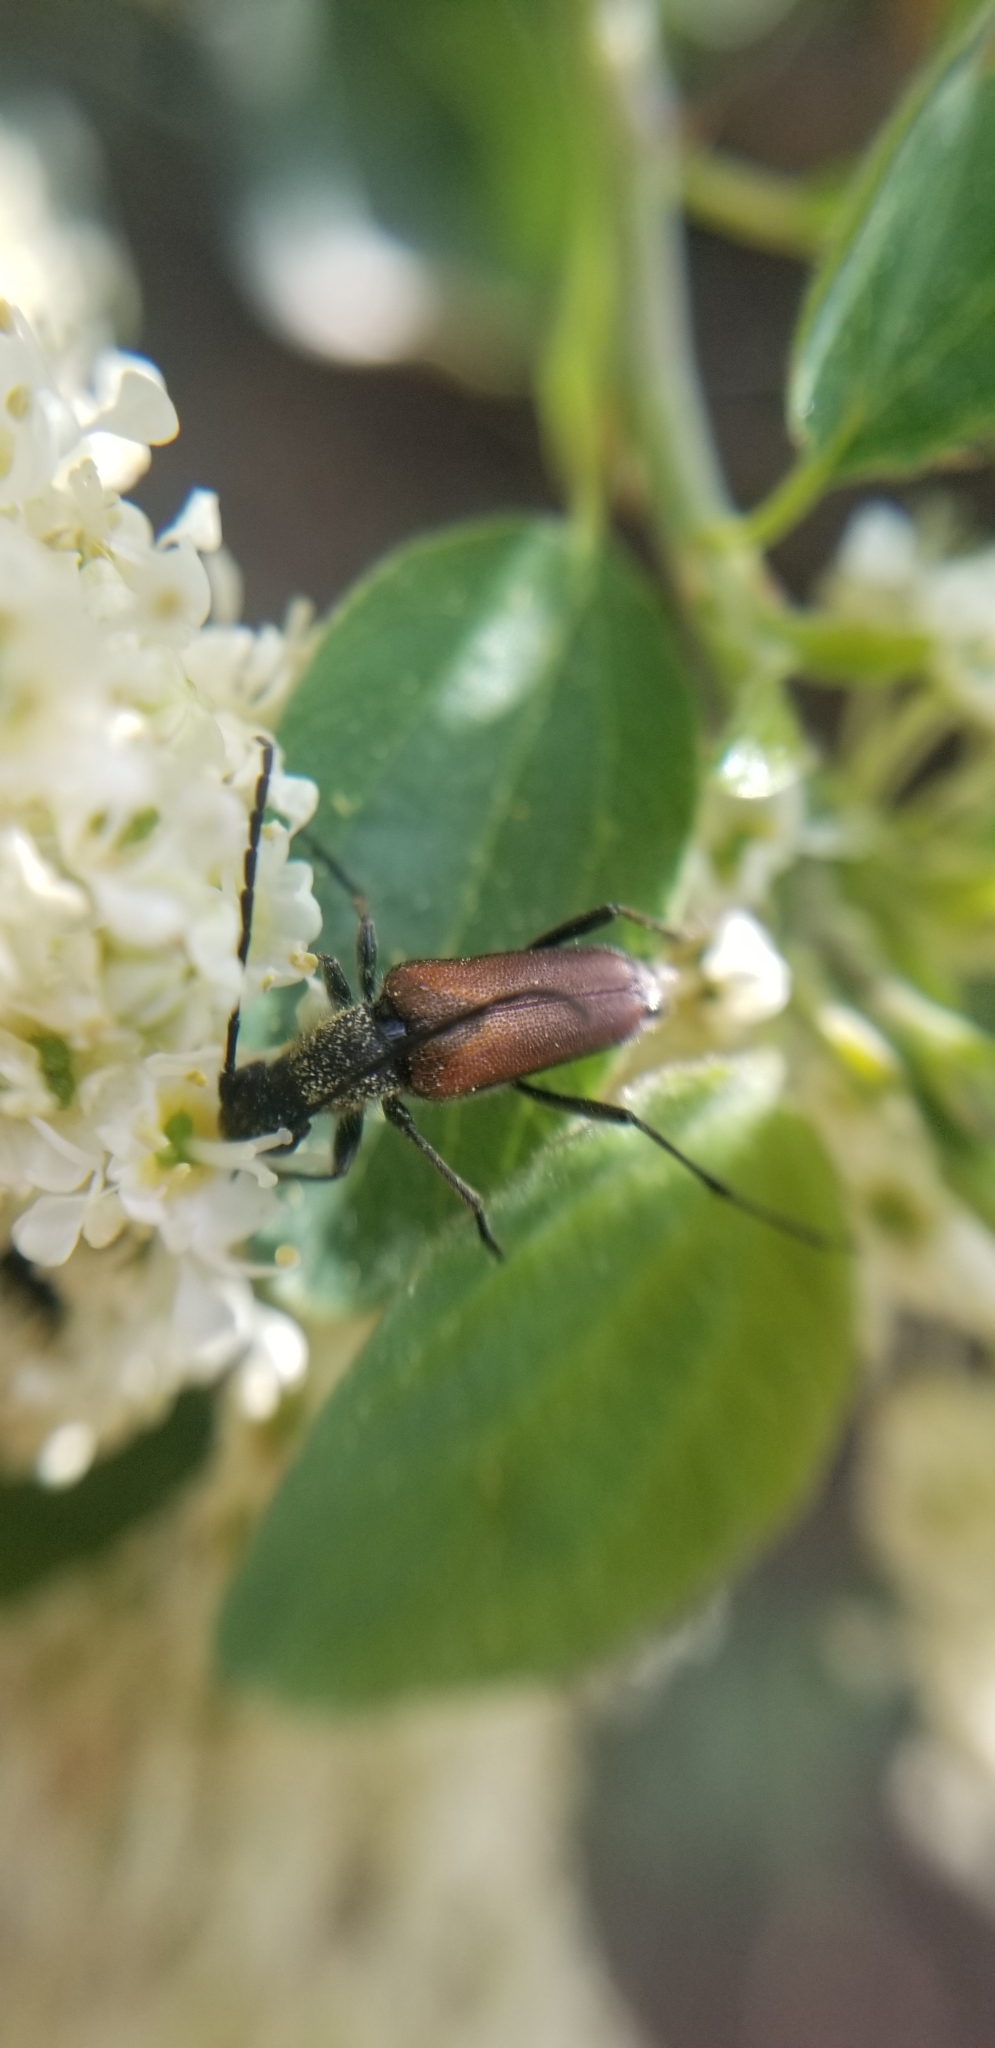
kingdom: Animalia
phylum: Arthropoda
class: Insecta
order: Coleoptera
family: Cerambycidae
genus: Anastrangalia
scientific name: Anastrangalia sanguinea
